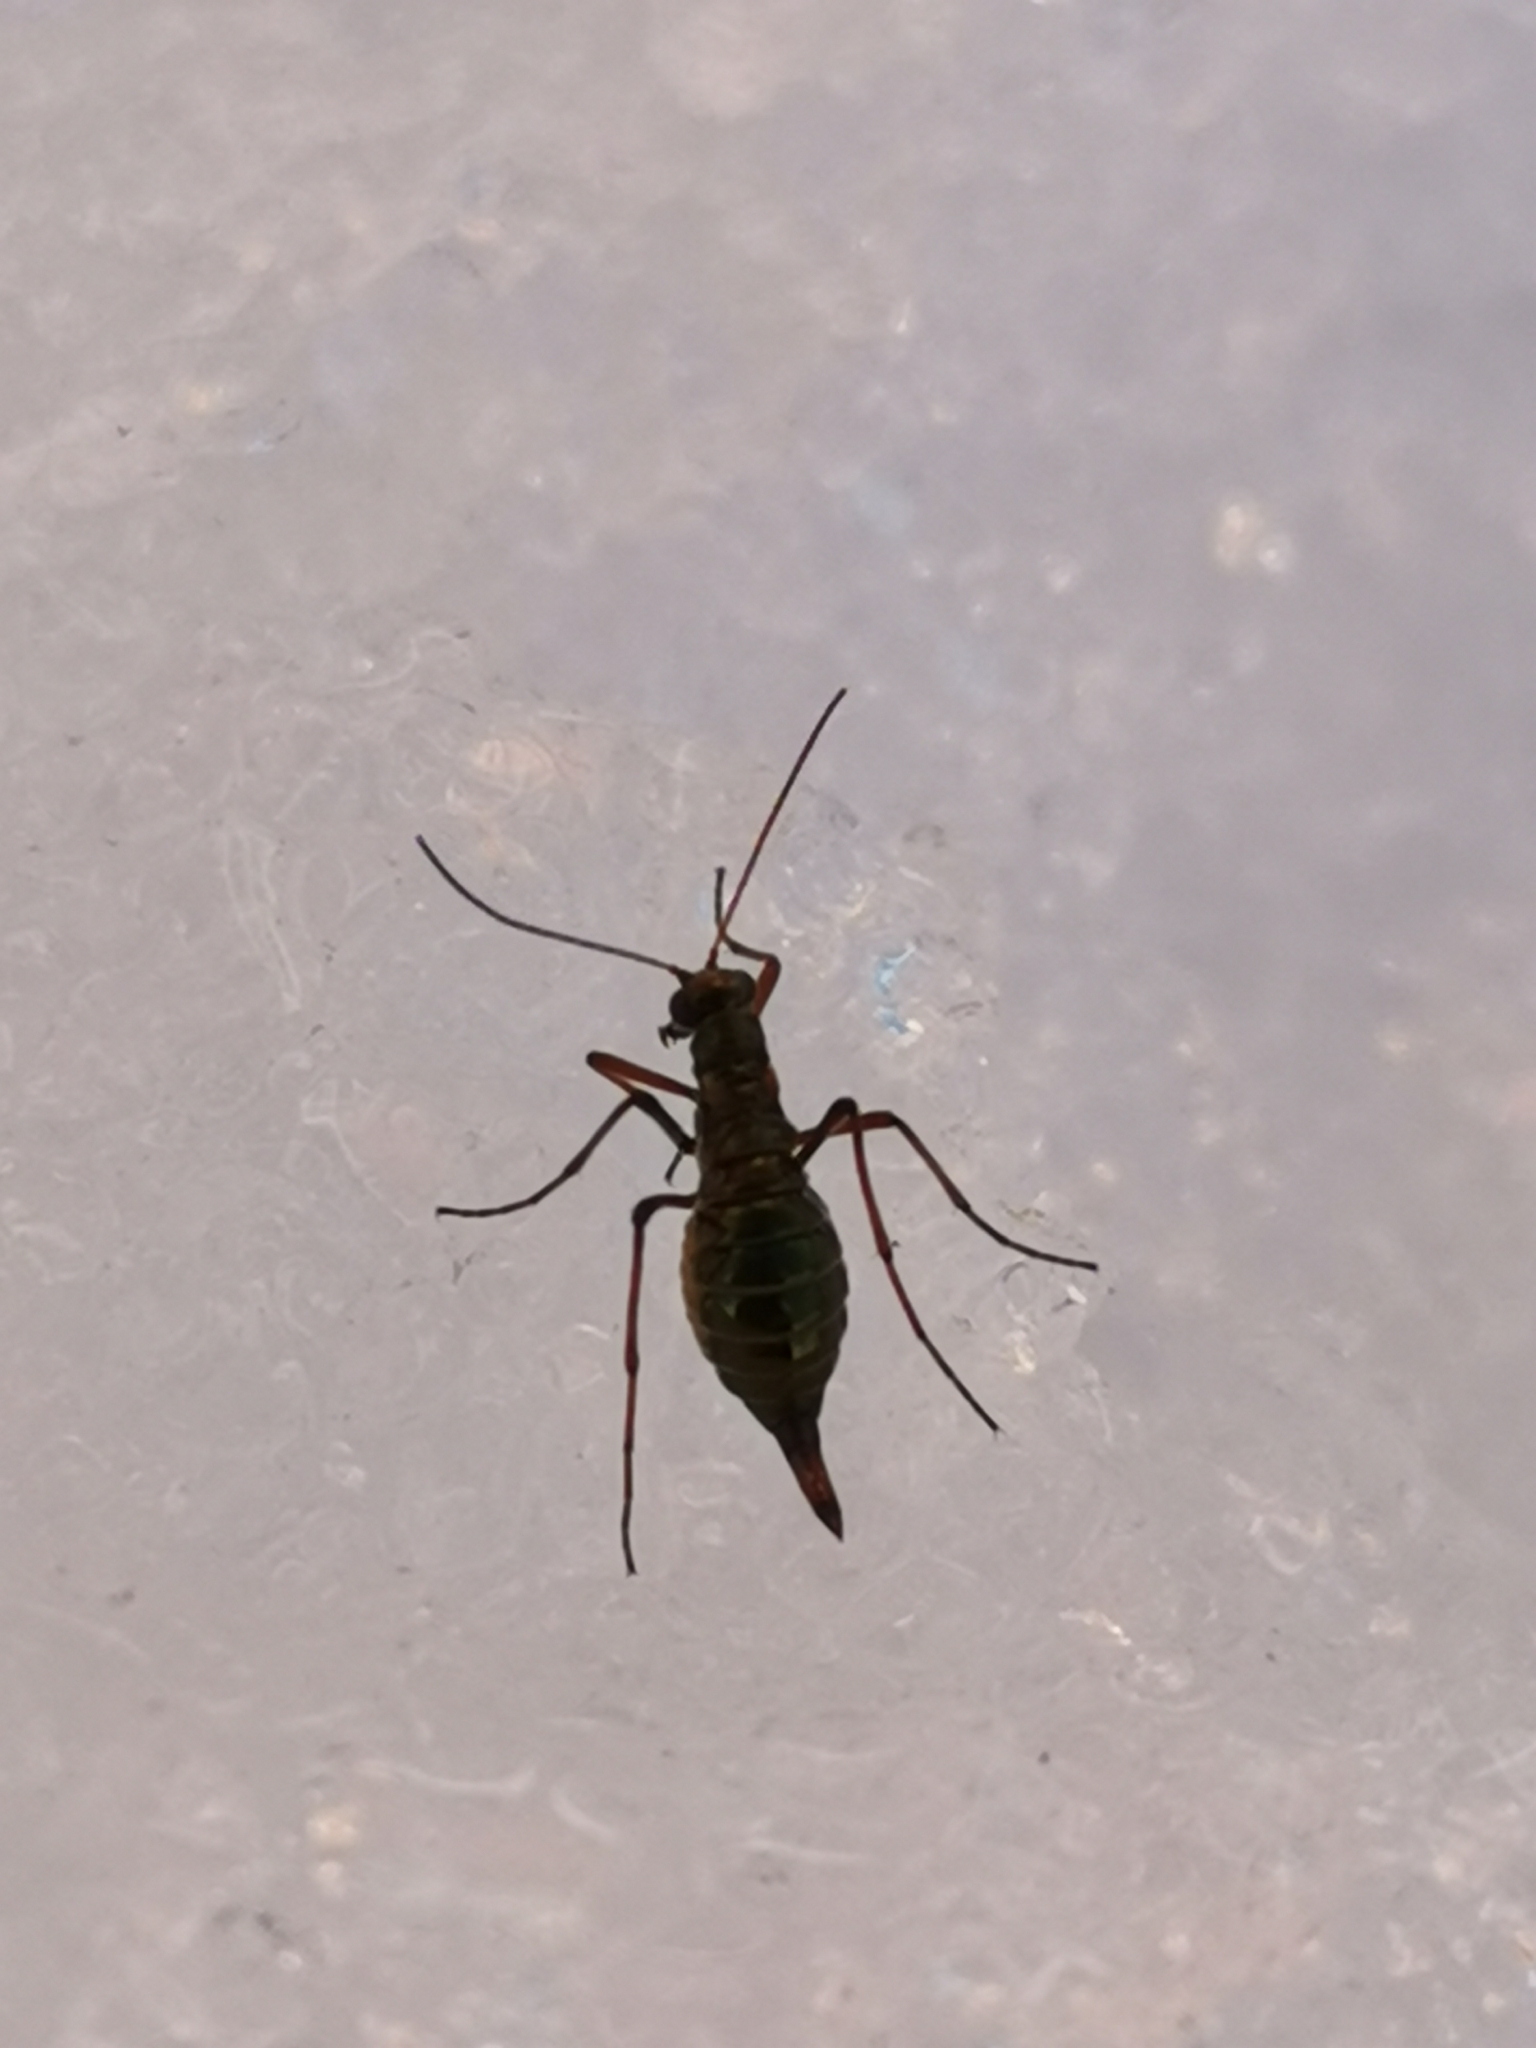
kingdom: Animalia
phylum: Arthropoda
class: Insecta
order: Mecoptera
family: Boreidae
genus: Boreus
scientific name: Boreus westwoodi
